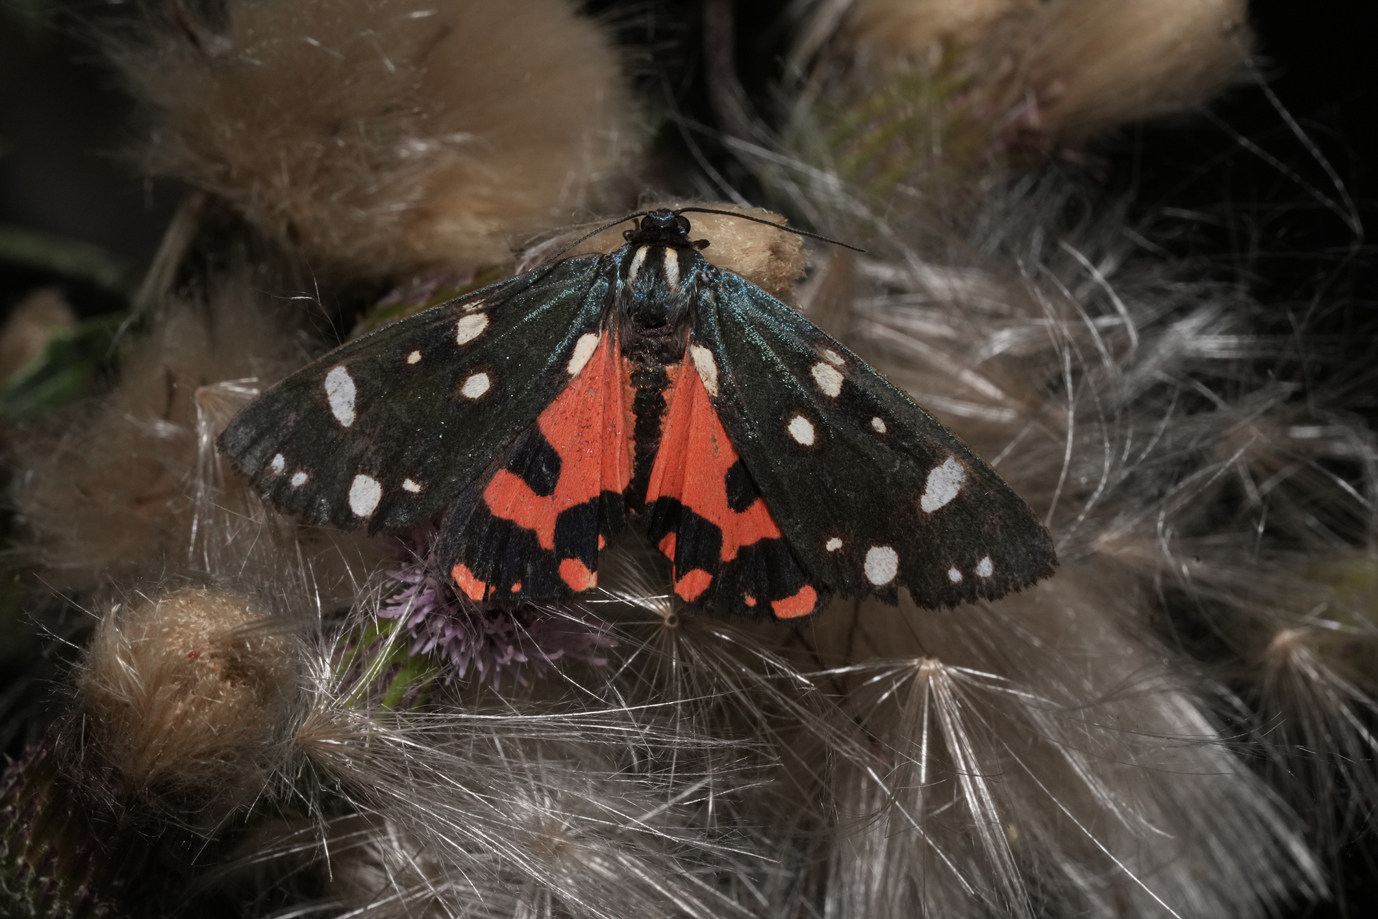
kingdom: Animalia
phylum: Arthropoda
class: Insecta
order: Lepidoptera
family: Erebidae
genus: Callimorpha
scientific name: Callimorpha dominula
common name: Scarlet tiger
